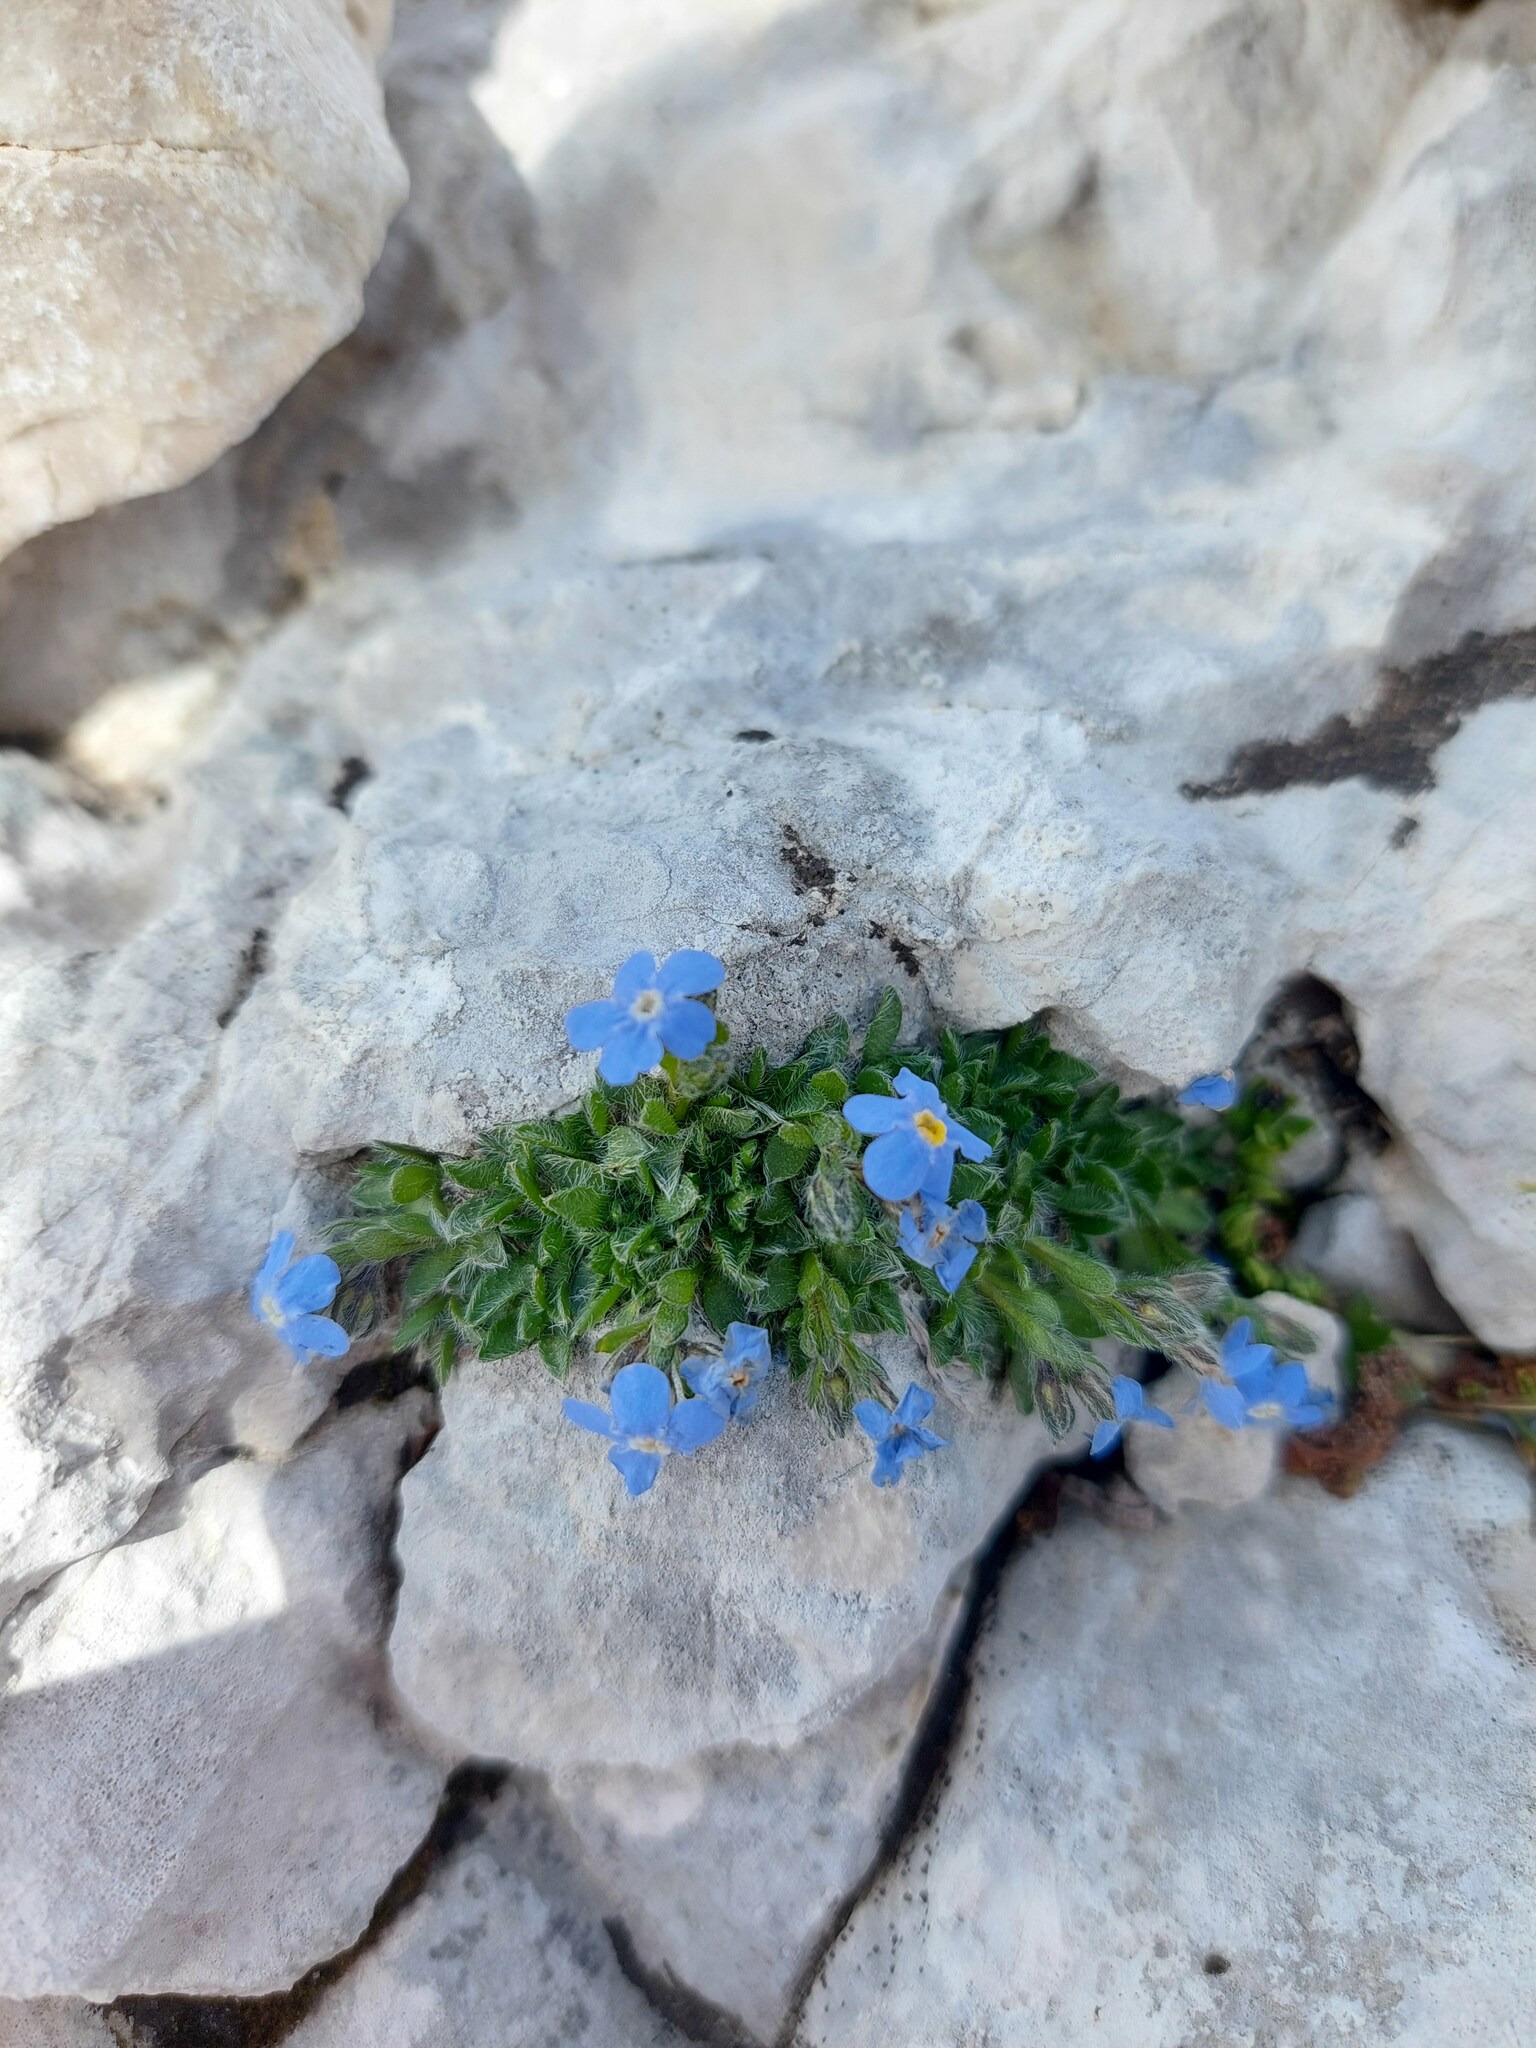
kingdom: Plantae
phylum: Tracheophyta
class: Magnoliopsida
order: Boraginales
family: Boraginaceae
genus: Eritrichium
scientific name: Eritrichium nanum
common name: King-of-the-alps
